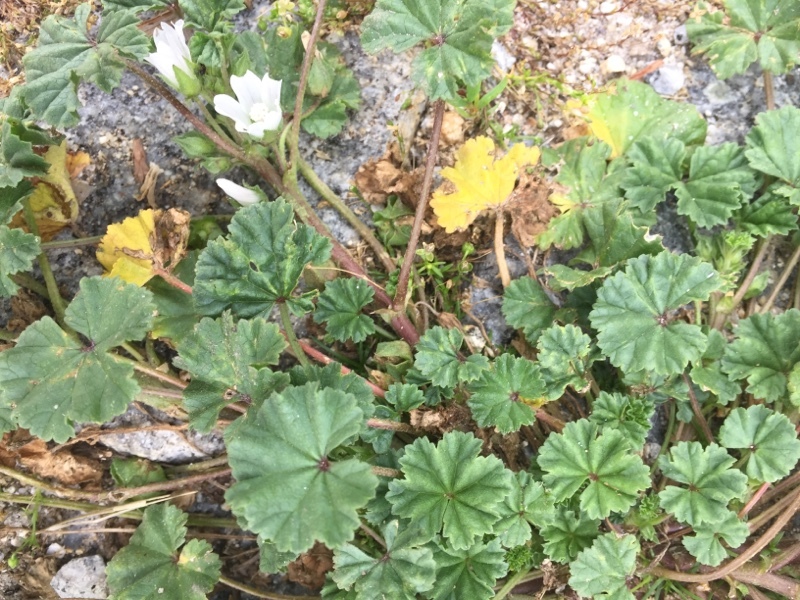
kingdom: Plantae
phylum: Tracheophyta
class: Magnoliopsida
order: Malvales
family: Malvaceae
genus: Malva
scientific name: Malva neglecta
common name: Common mallow
